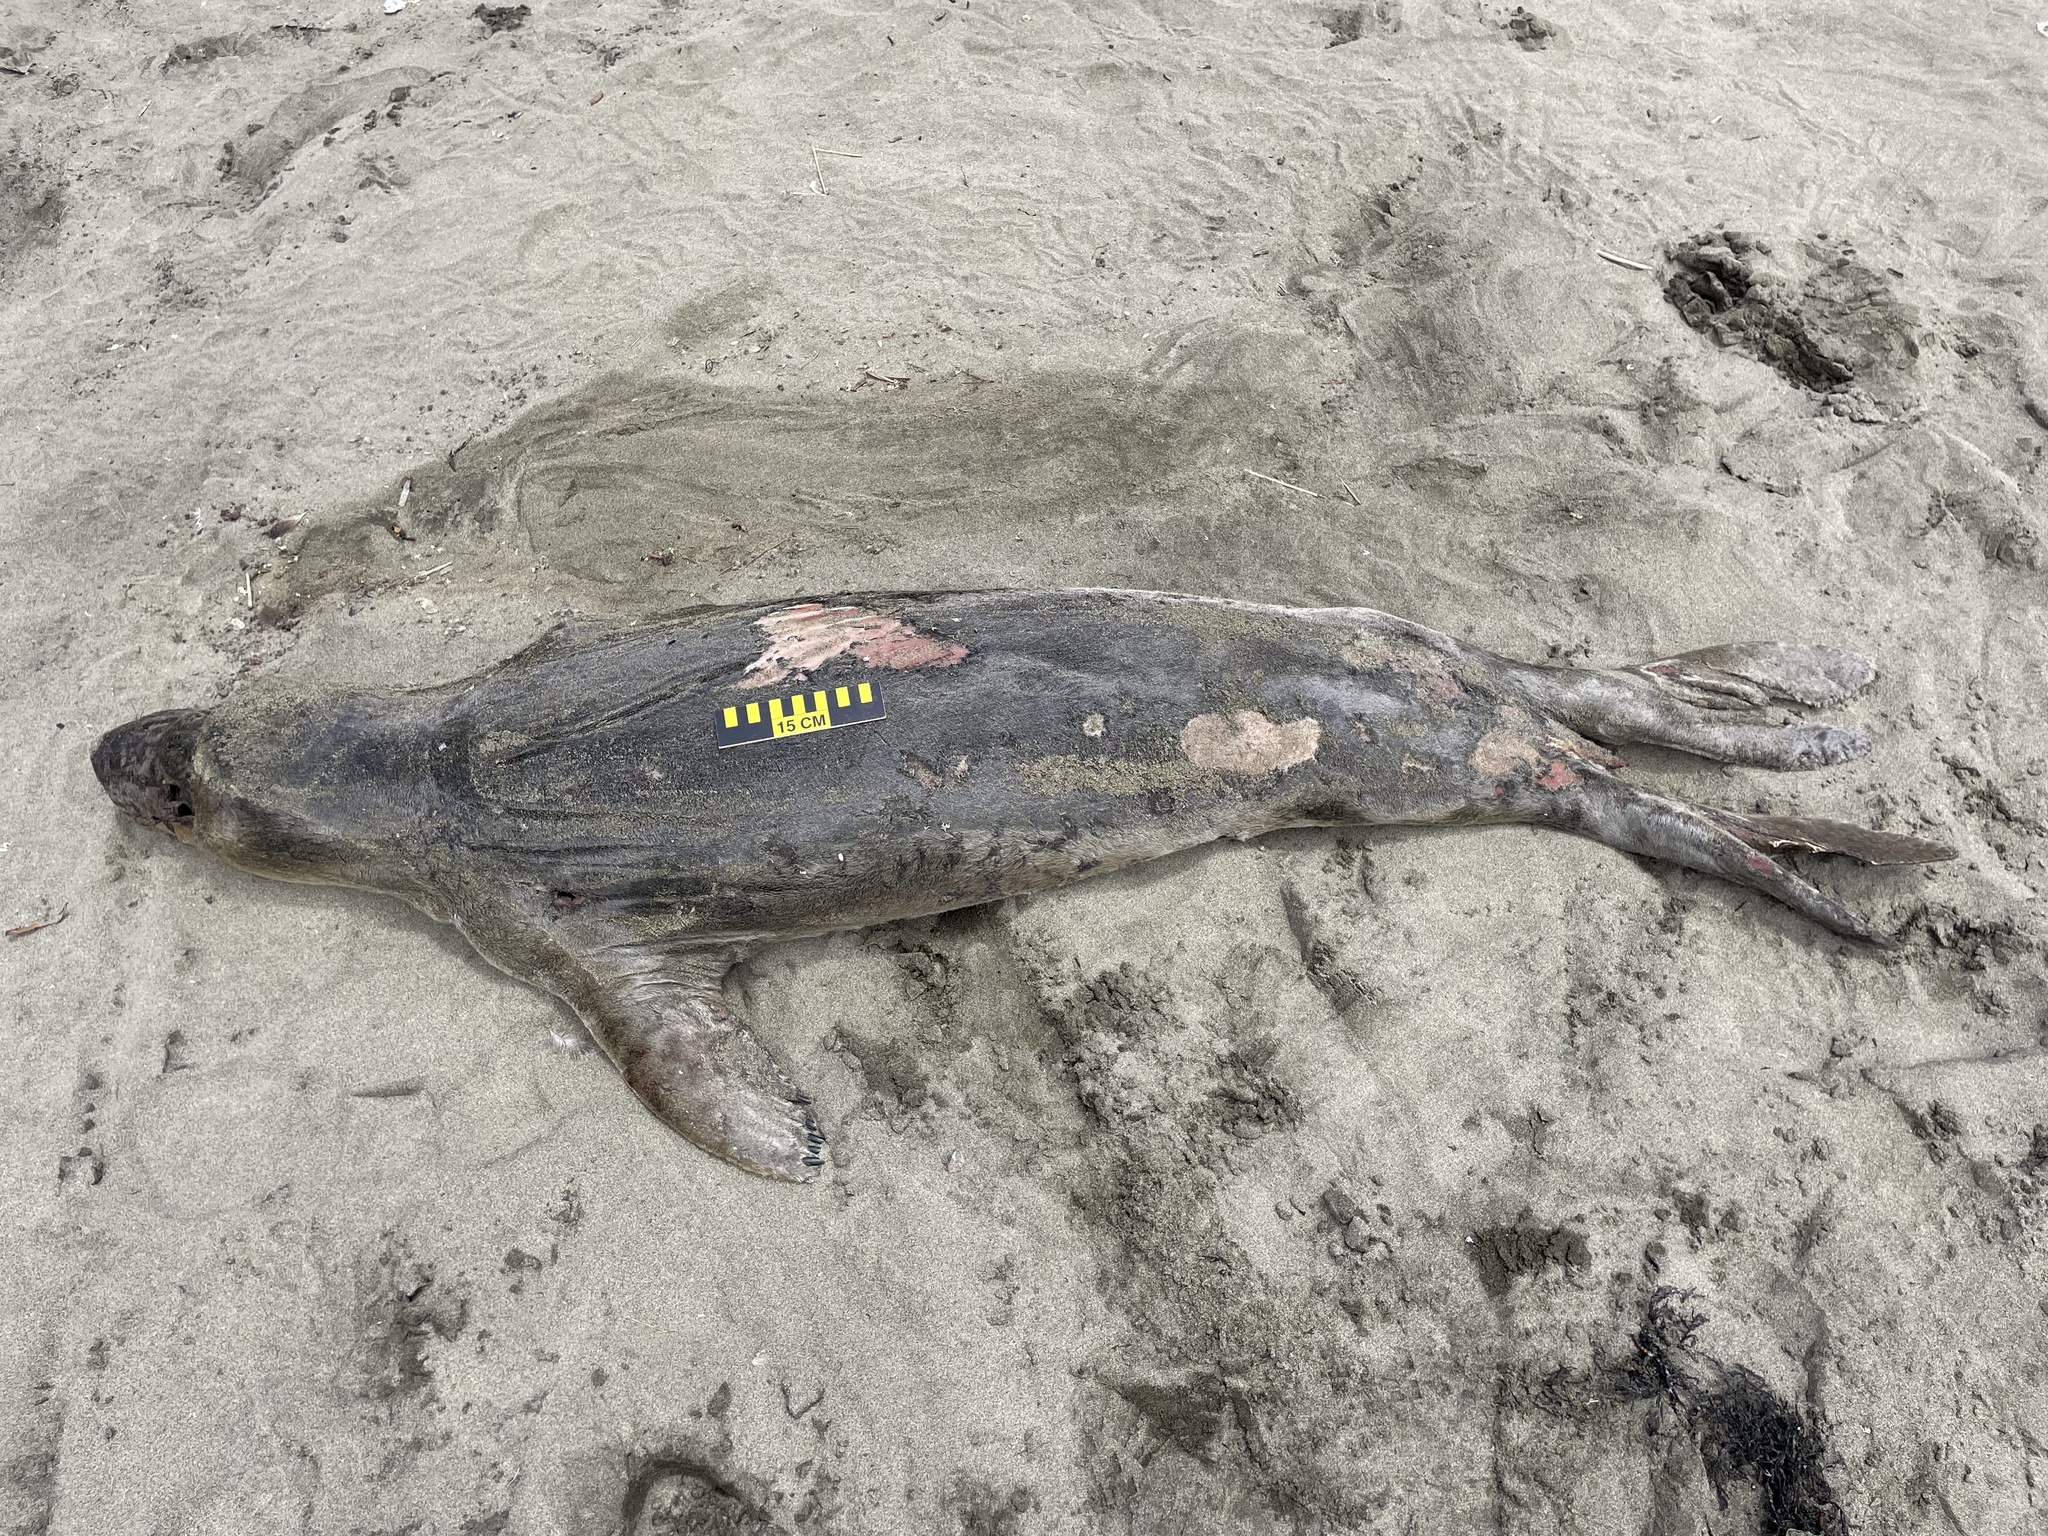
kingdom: Animalia
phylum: Chordata
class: Mammalia
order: Carnivora
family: Phocidae
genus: Mirounga
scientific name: Mirounga angustirostris
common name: Northern elephant seal
